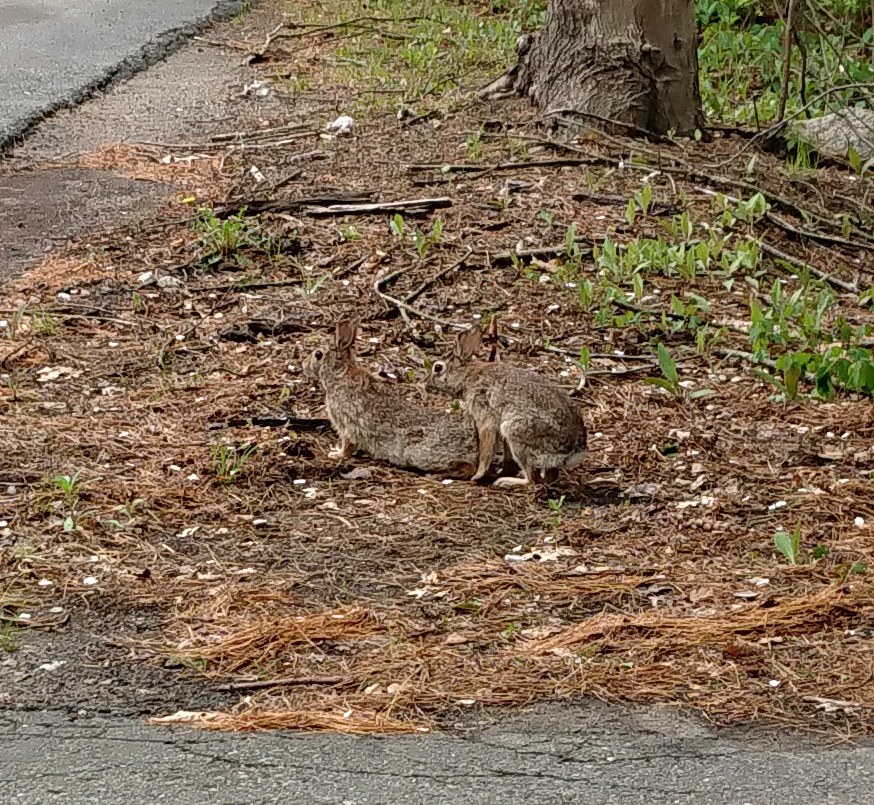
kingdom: Animalia
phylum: Chordata
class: Mammalia
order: Lagomorpha
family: Leporidae
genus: Sylvilagus
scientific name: Sylvilagus floridanus
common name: Eastern cottontail
